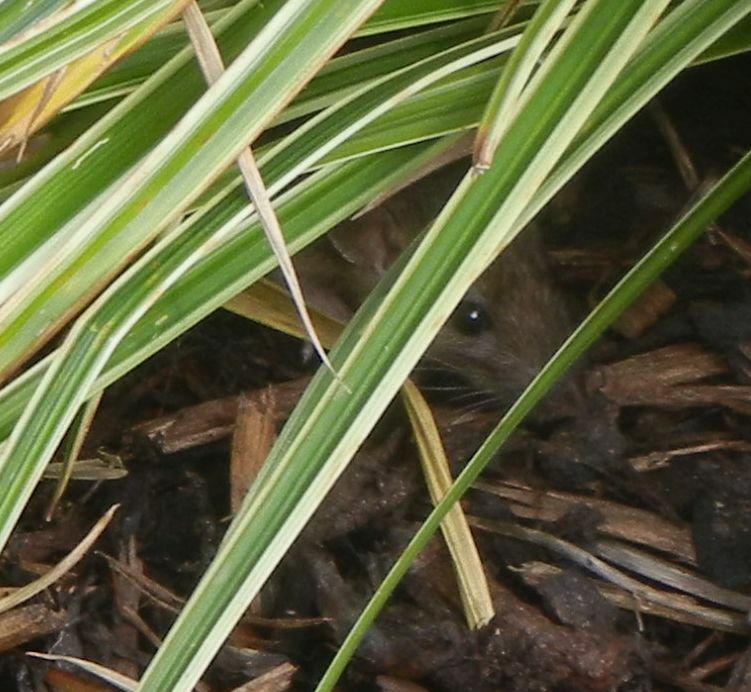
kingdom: Animalia
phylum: Chordata
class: Mammalia
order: Rodentia
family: Muridae
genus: Rattus
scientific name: Rattus norvegicus
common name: Brown rat
